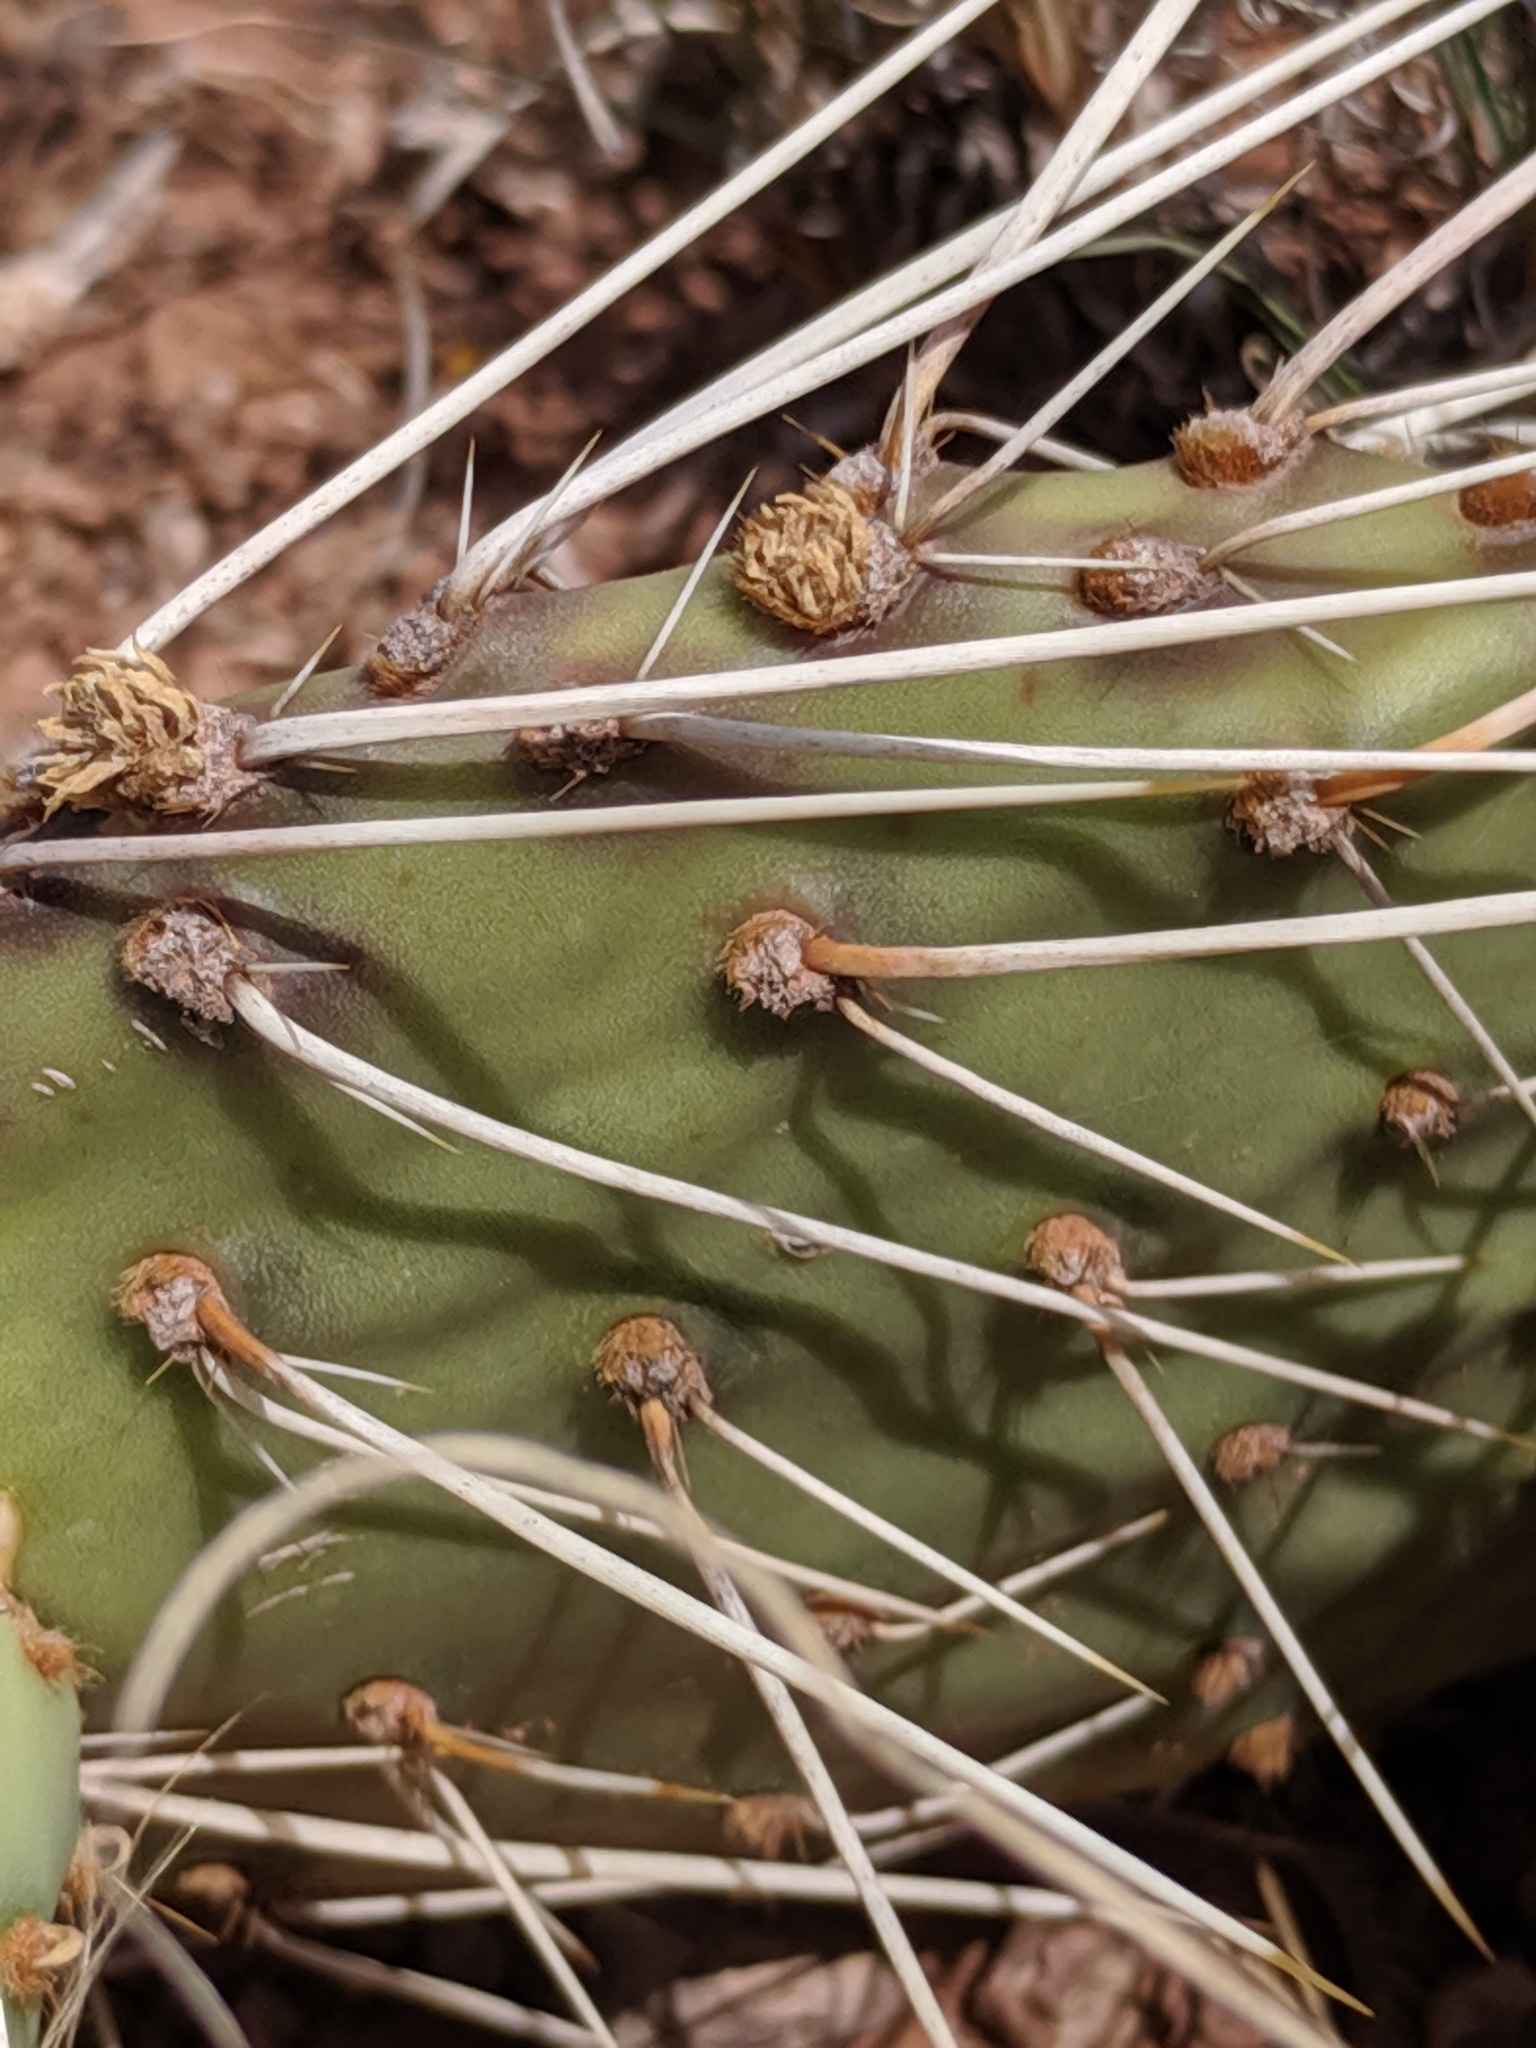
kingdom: Plantae
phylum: Tracheophyta
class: Magnoliopsida
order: Caryophyllales
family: Cactaceae
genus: Opuntia
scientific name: Opuntia cymochila
